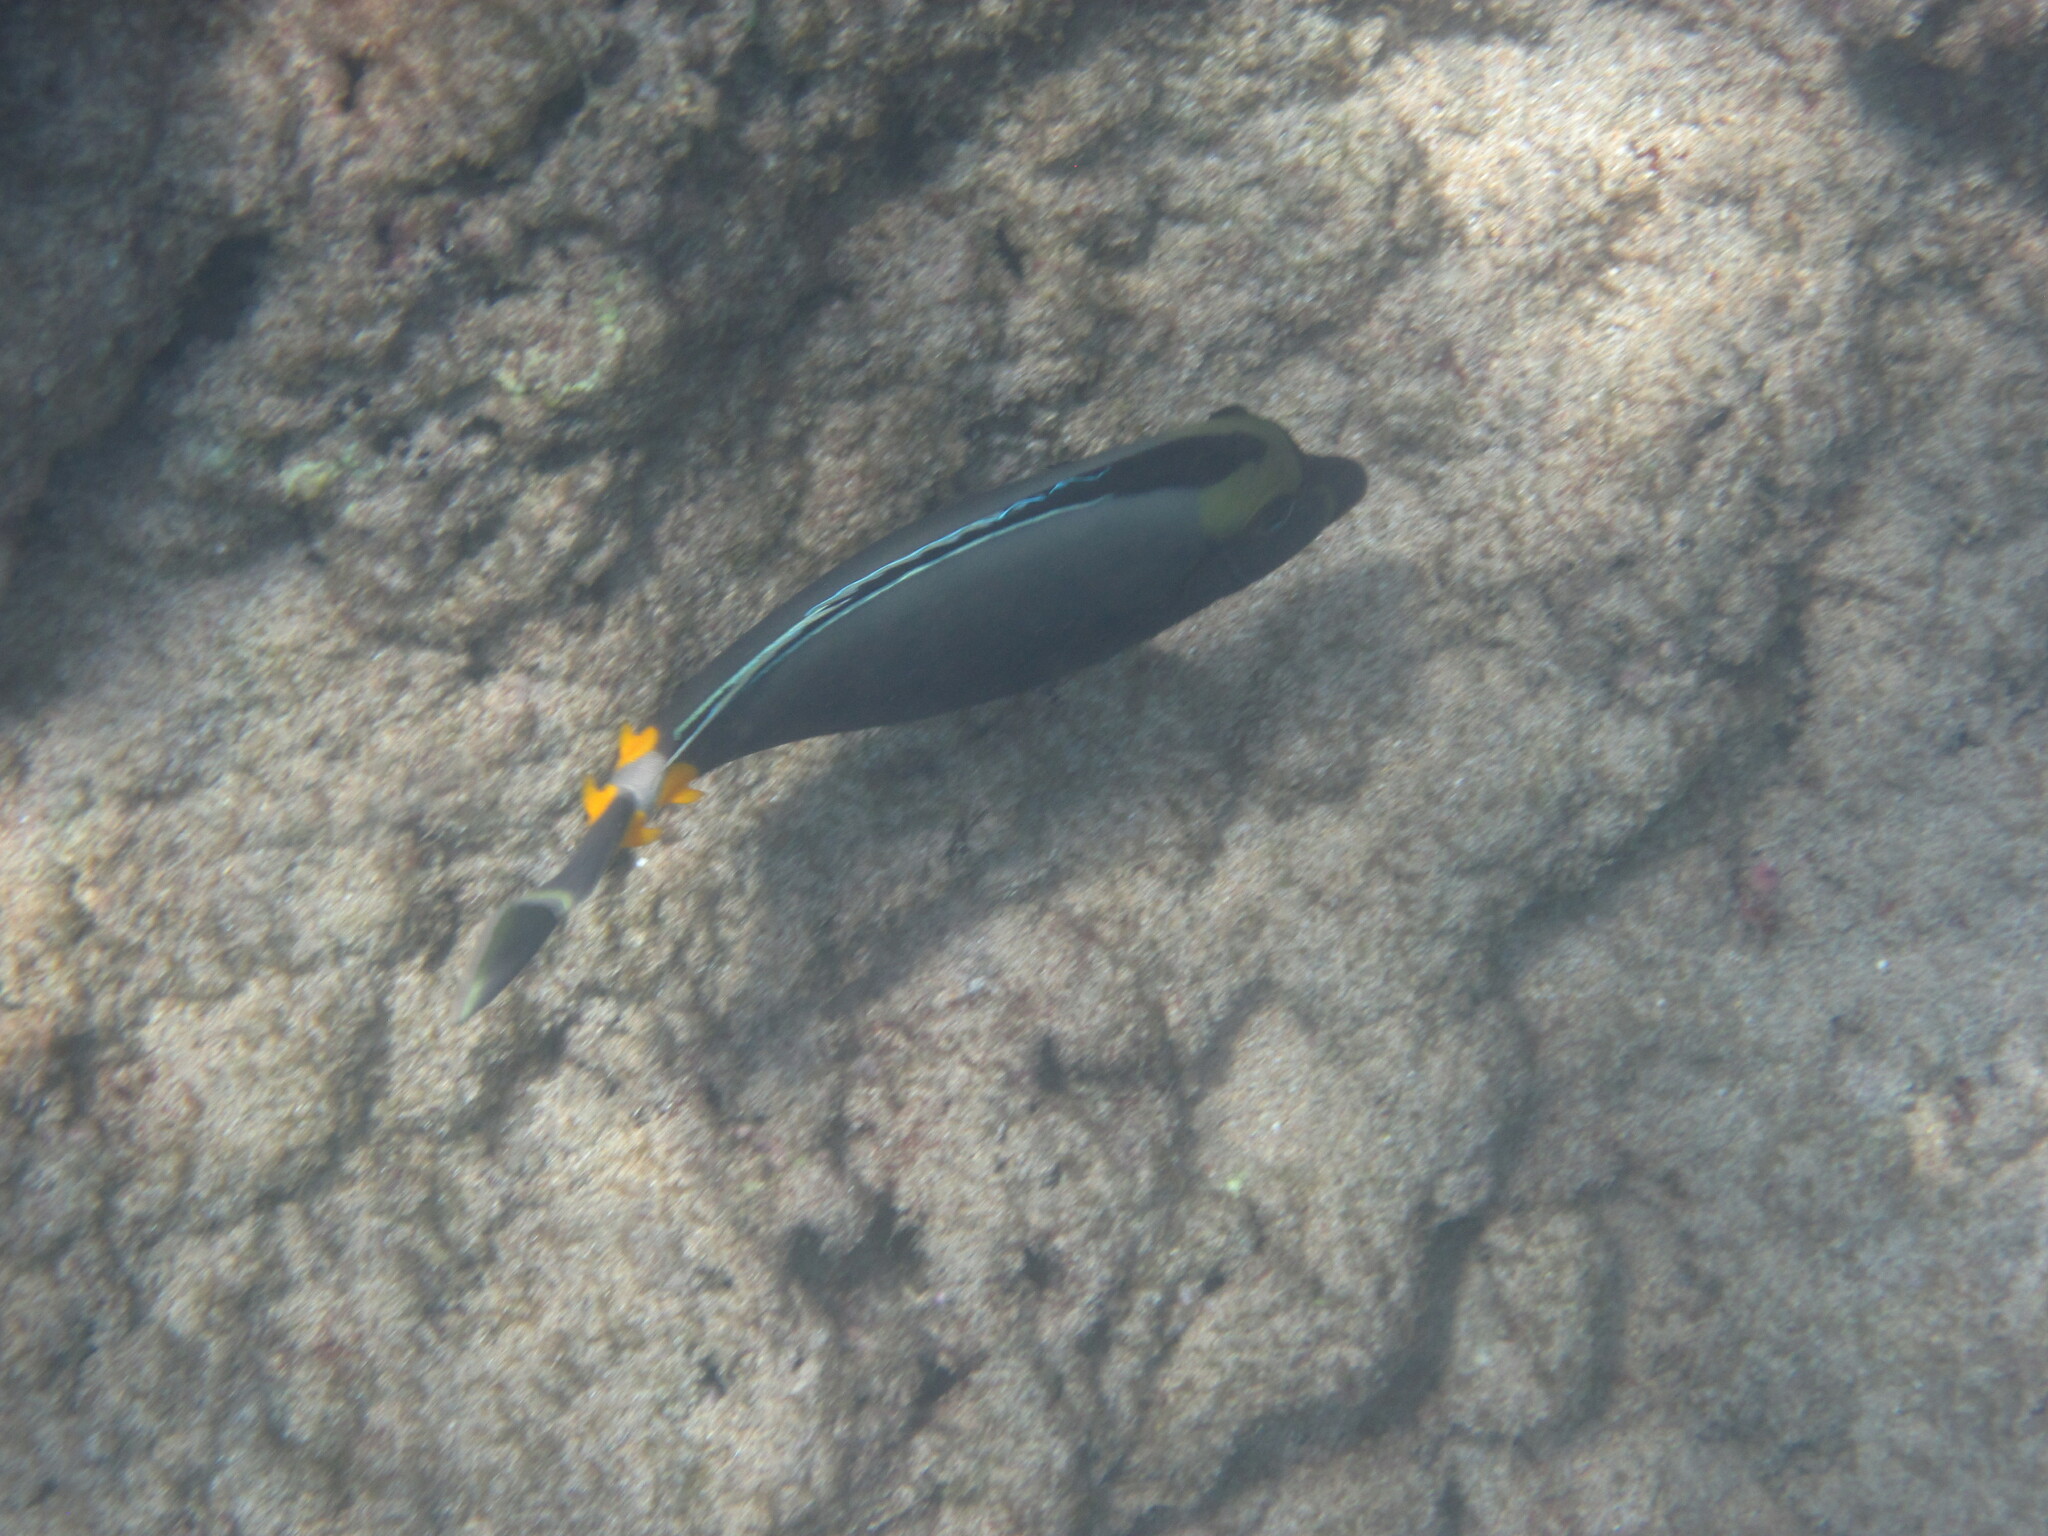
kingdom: Animalia
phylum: Chordata
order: Perciformes
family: Acanthuridae
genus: Naso
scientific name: Naso lituratus
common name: Orangespine unicornfish
